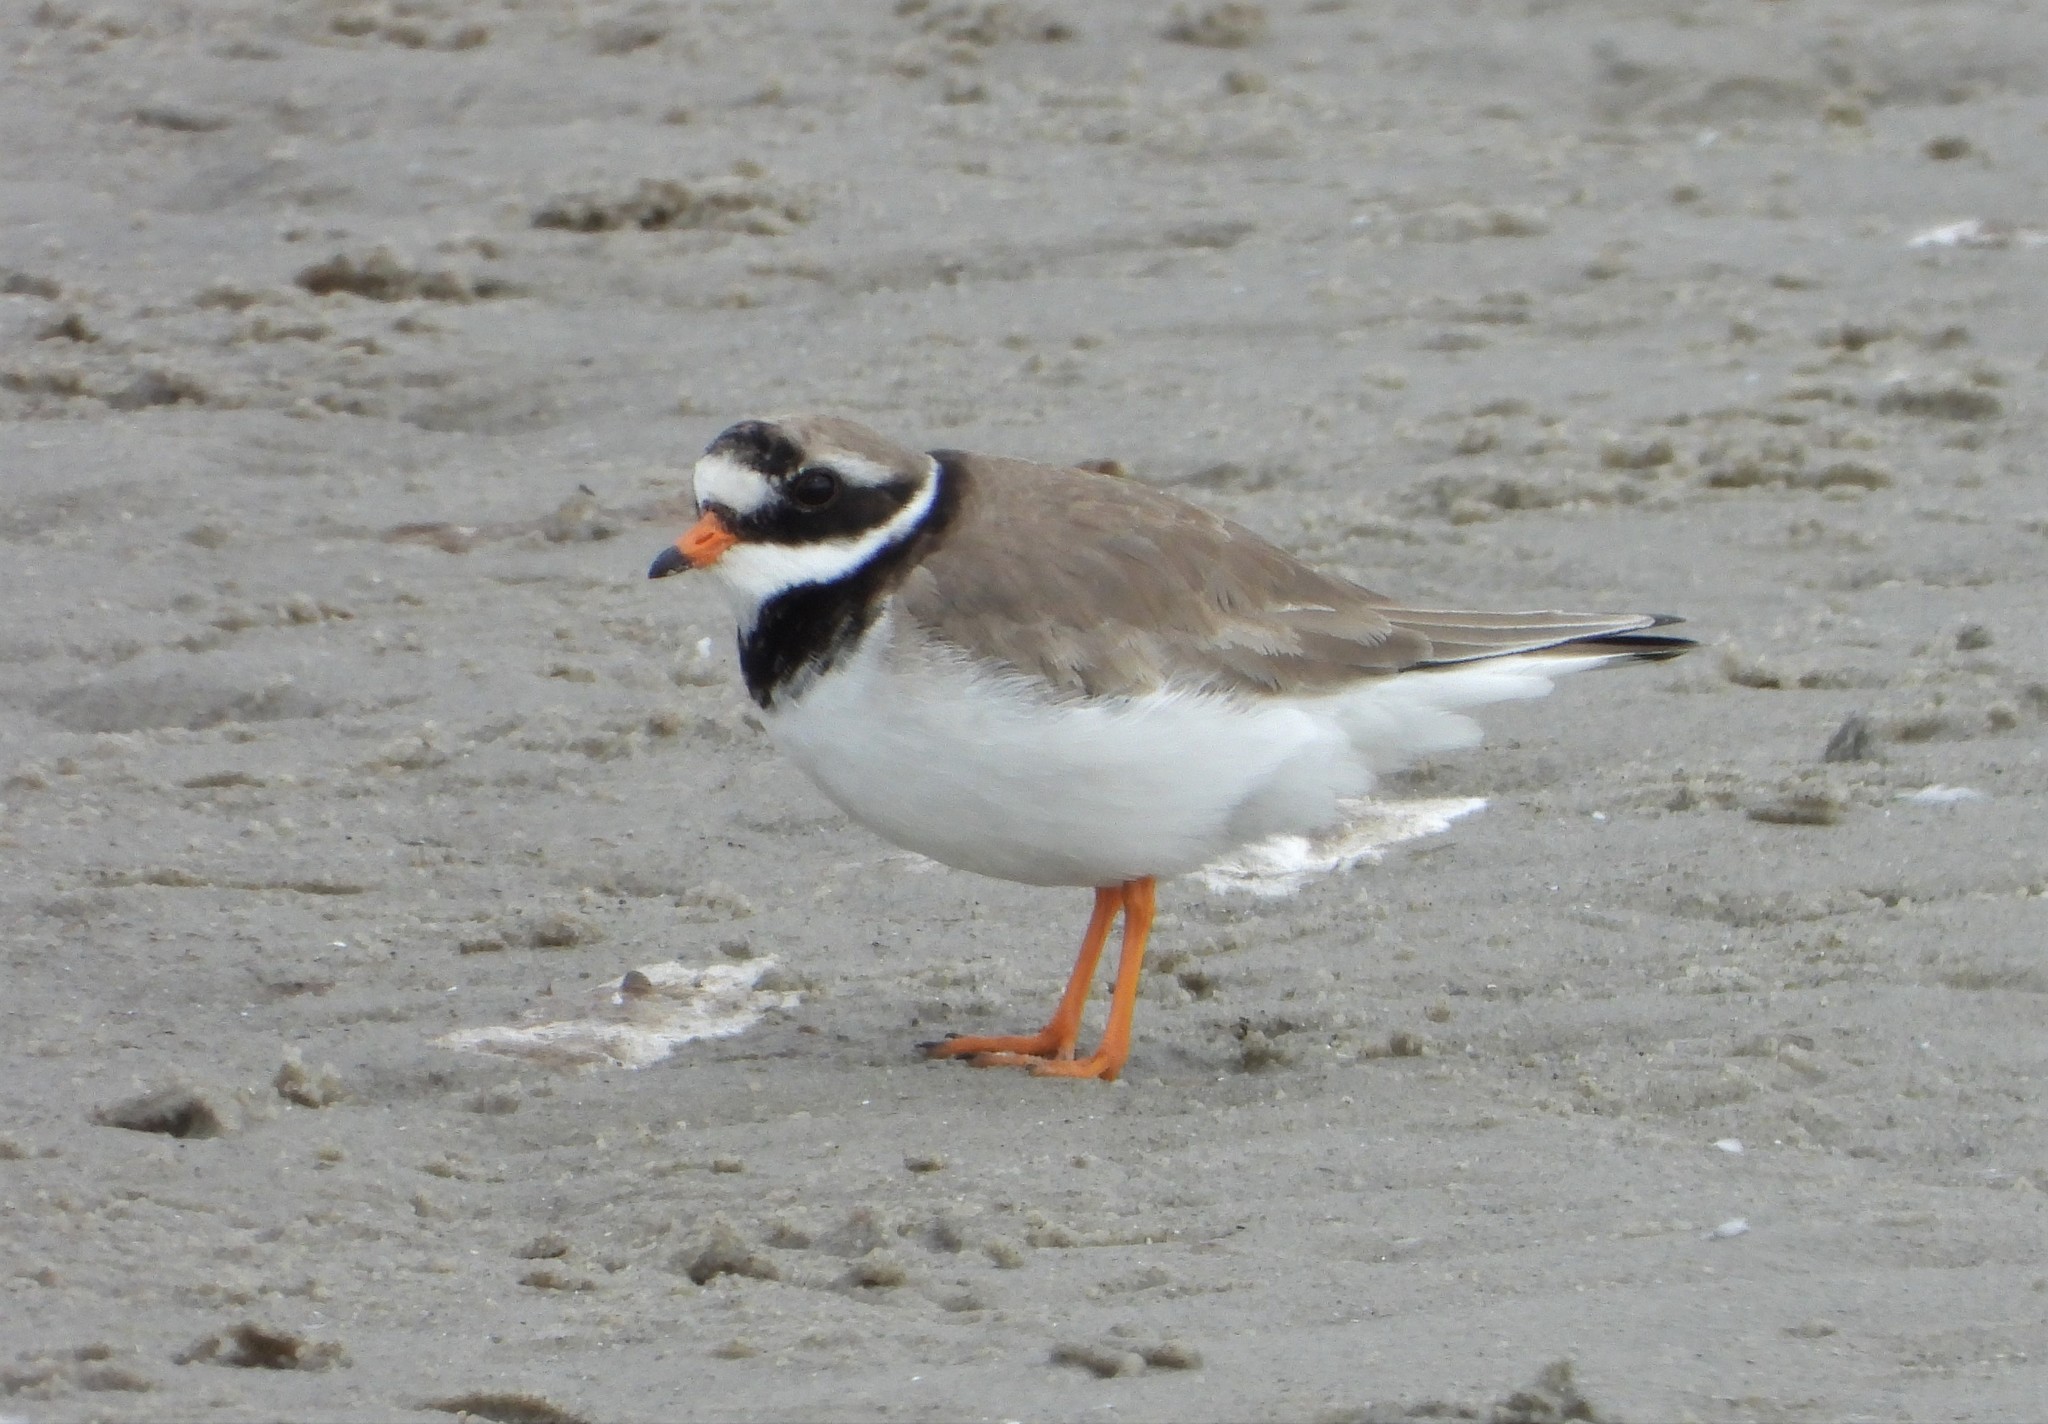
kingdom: Animalia
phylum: Chordata
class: Aves
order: Charadriiformes
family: Charadriidae
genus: Charadrius
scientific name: Charadrius hiaticula
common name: Common ringed plover
